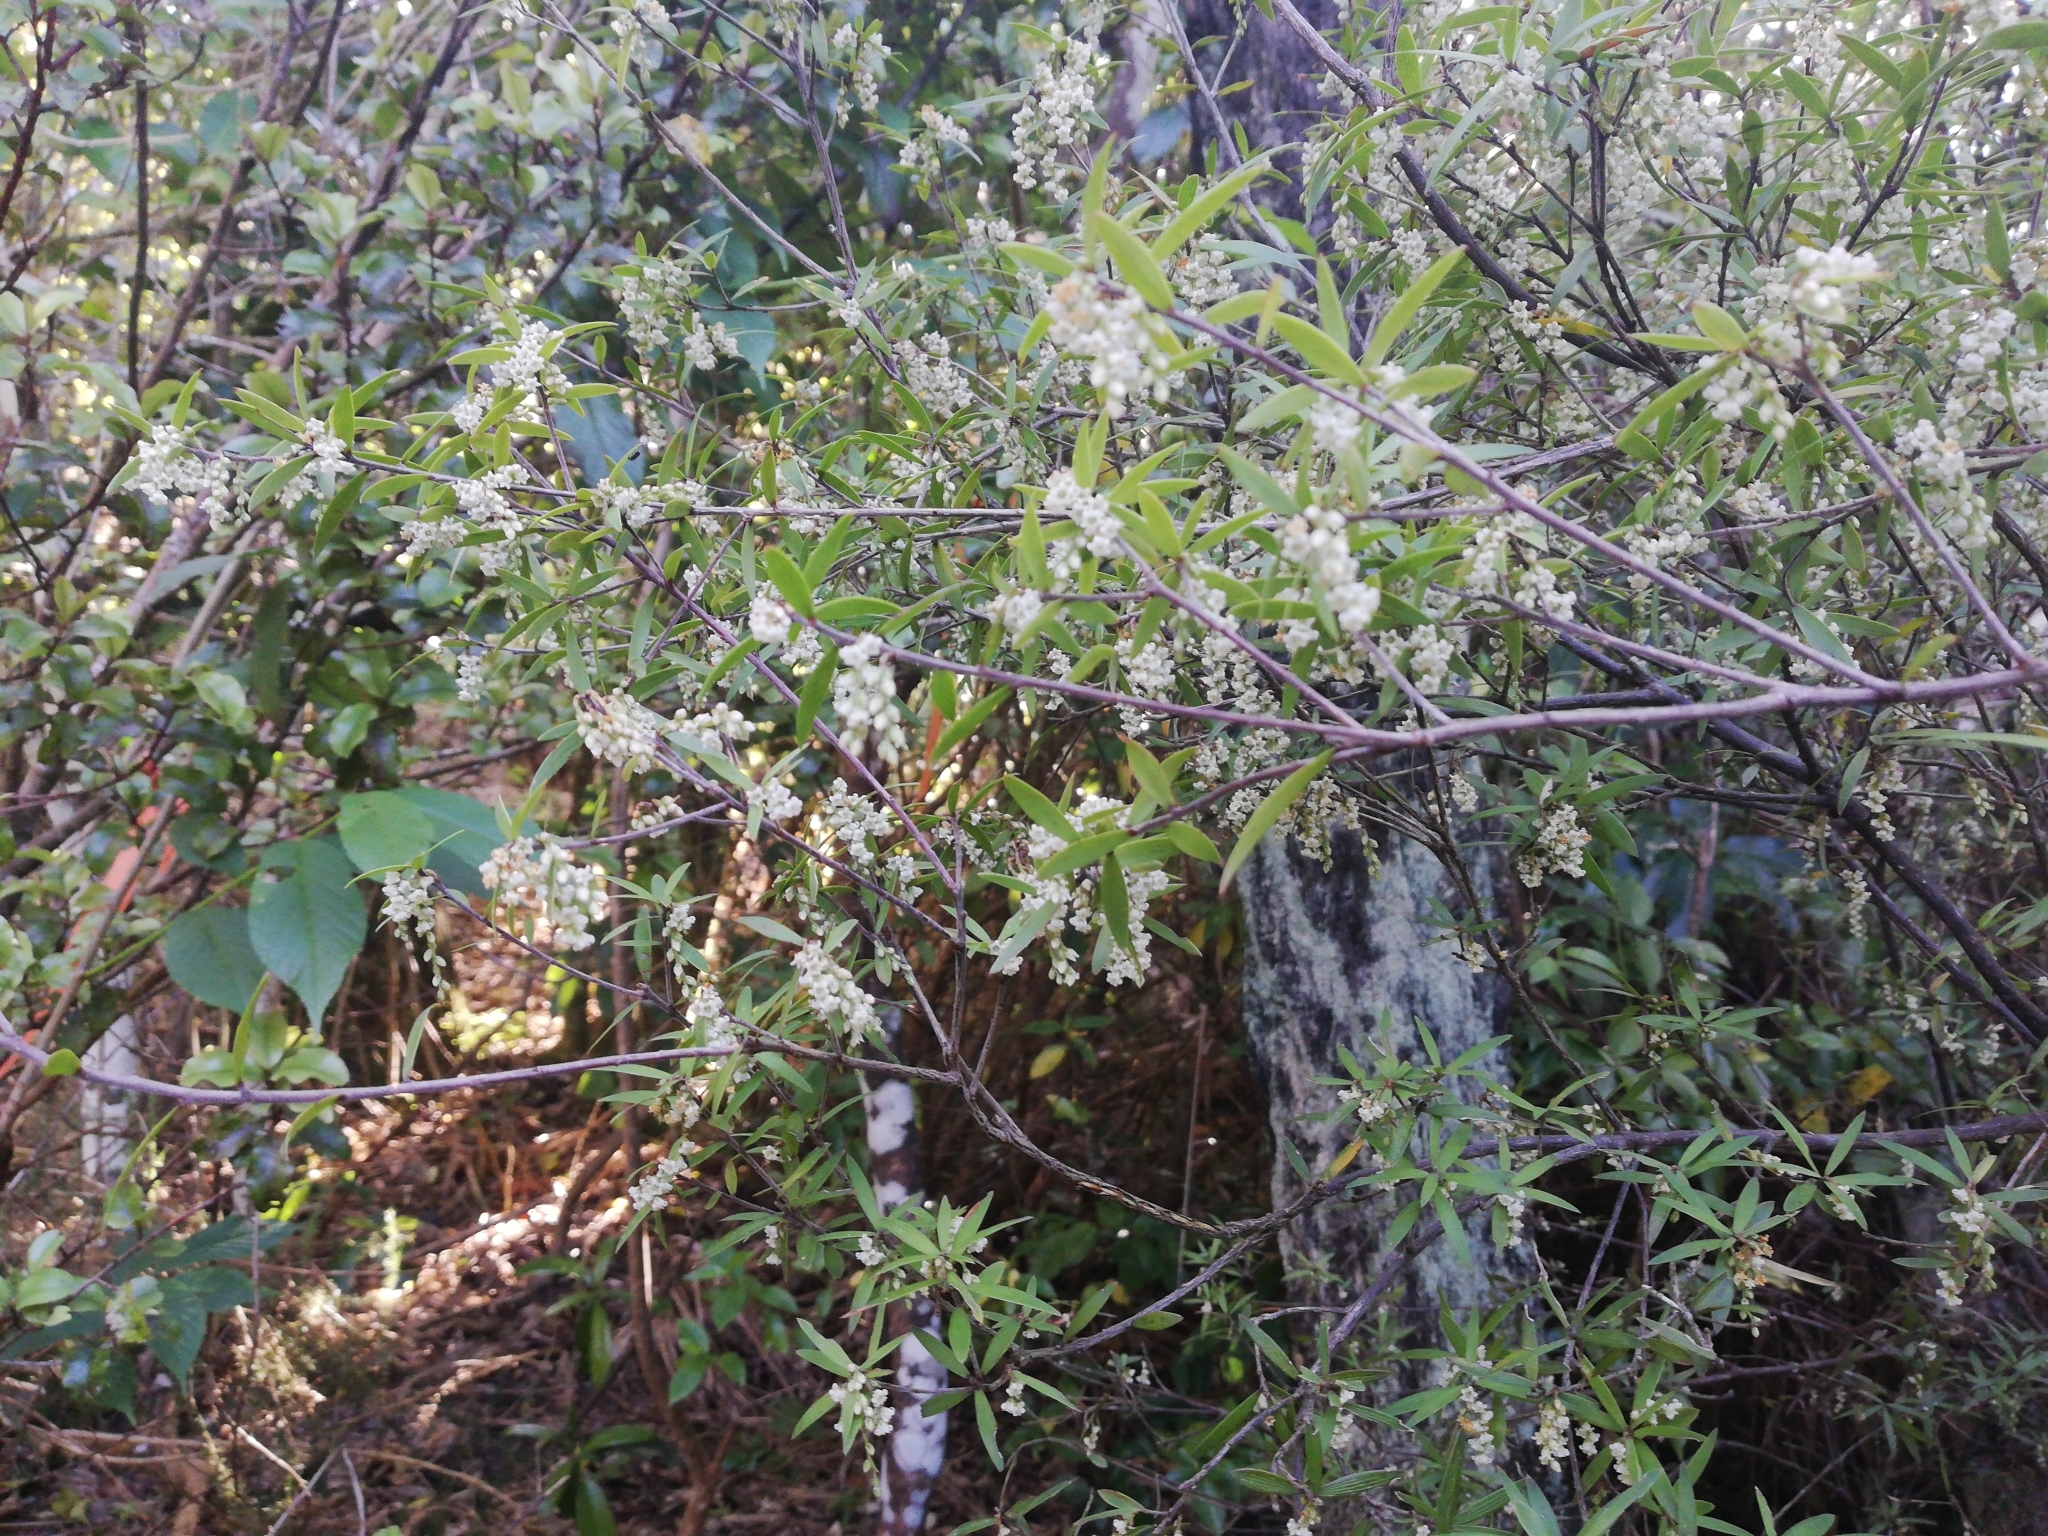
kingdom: Plantae
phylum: Tracheophyta
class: Magnoliopsida
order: Ericales
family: Ericaceae
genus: Leucopogon
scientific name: Leucopogon fasciculatus
